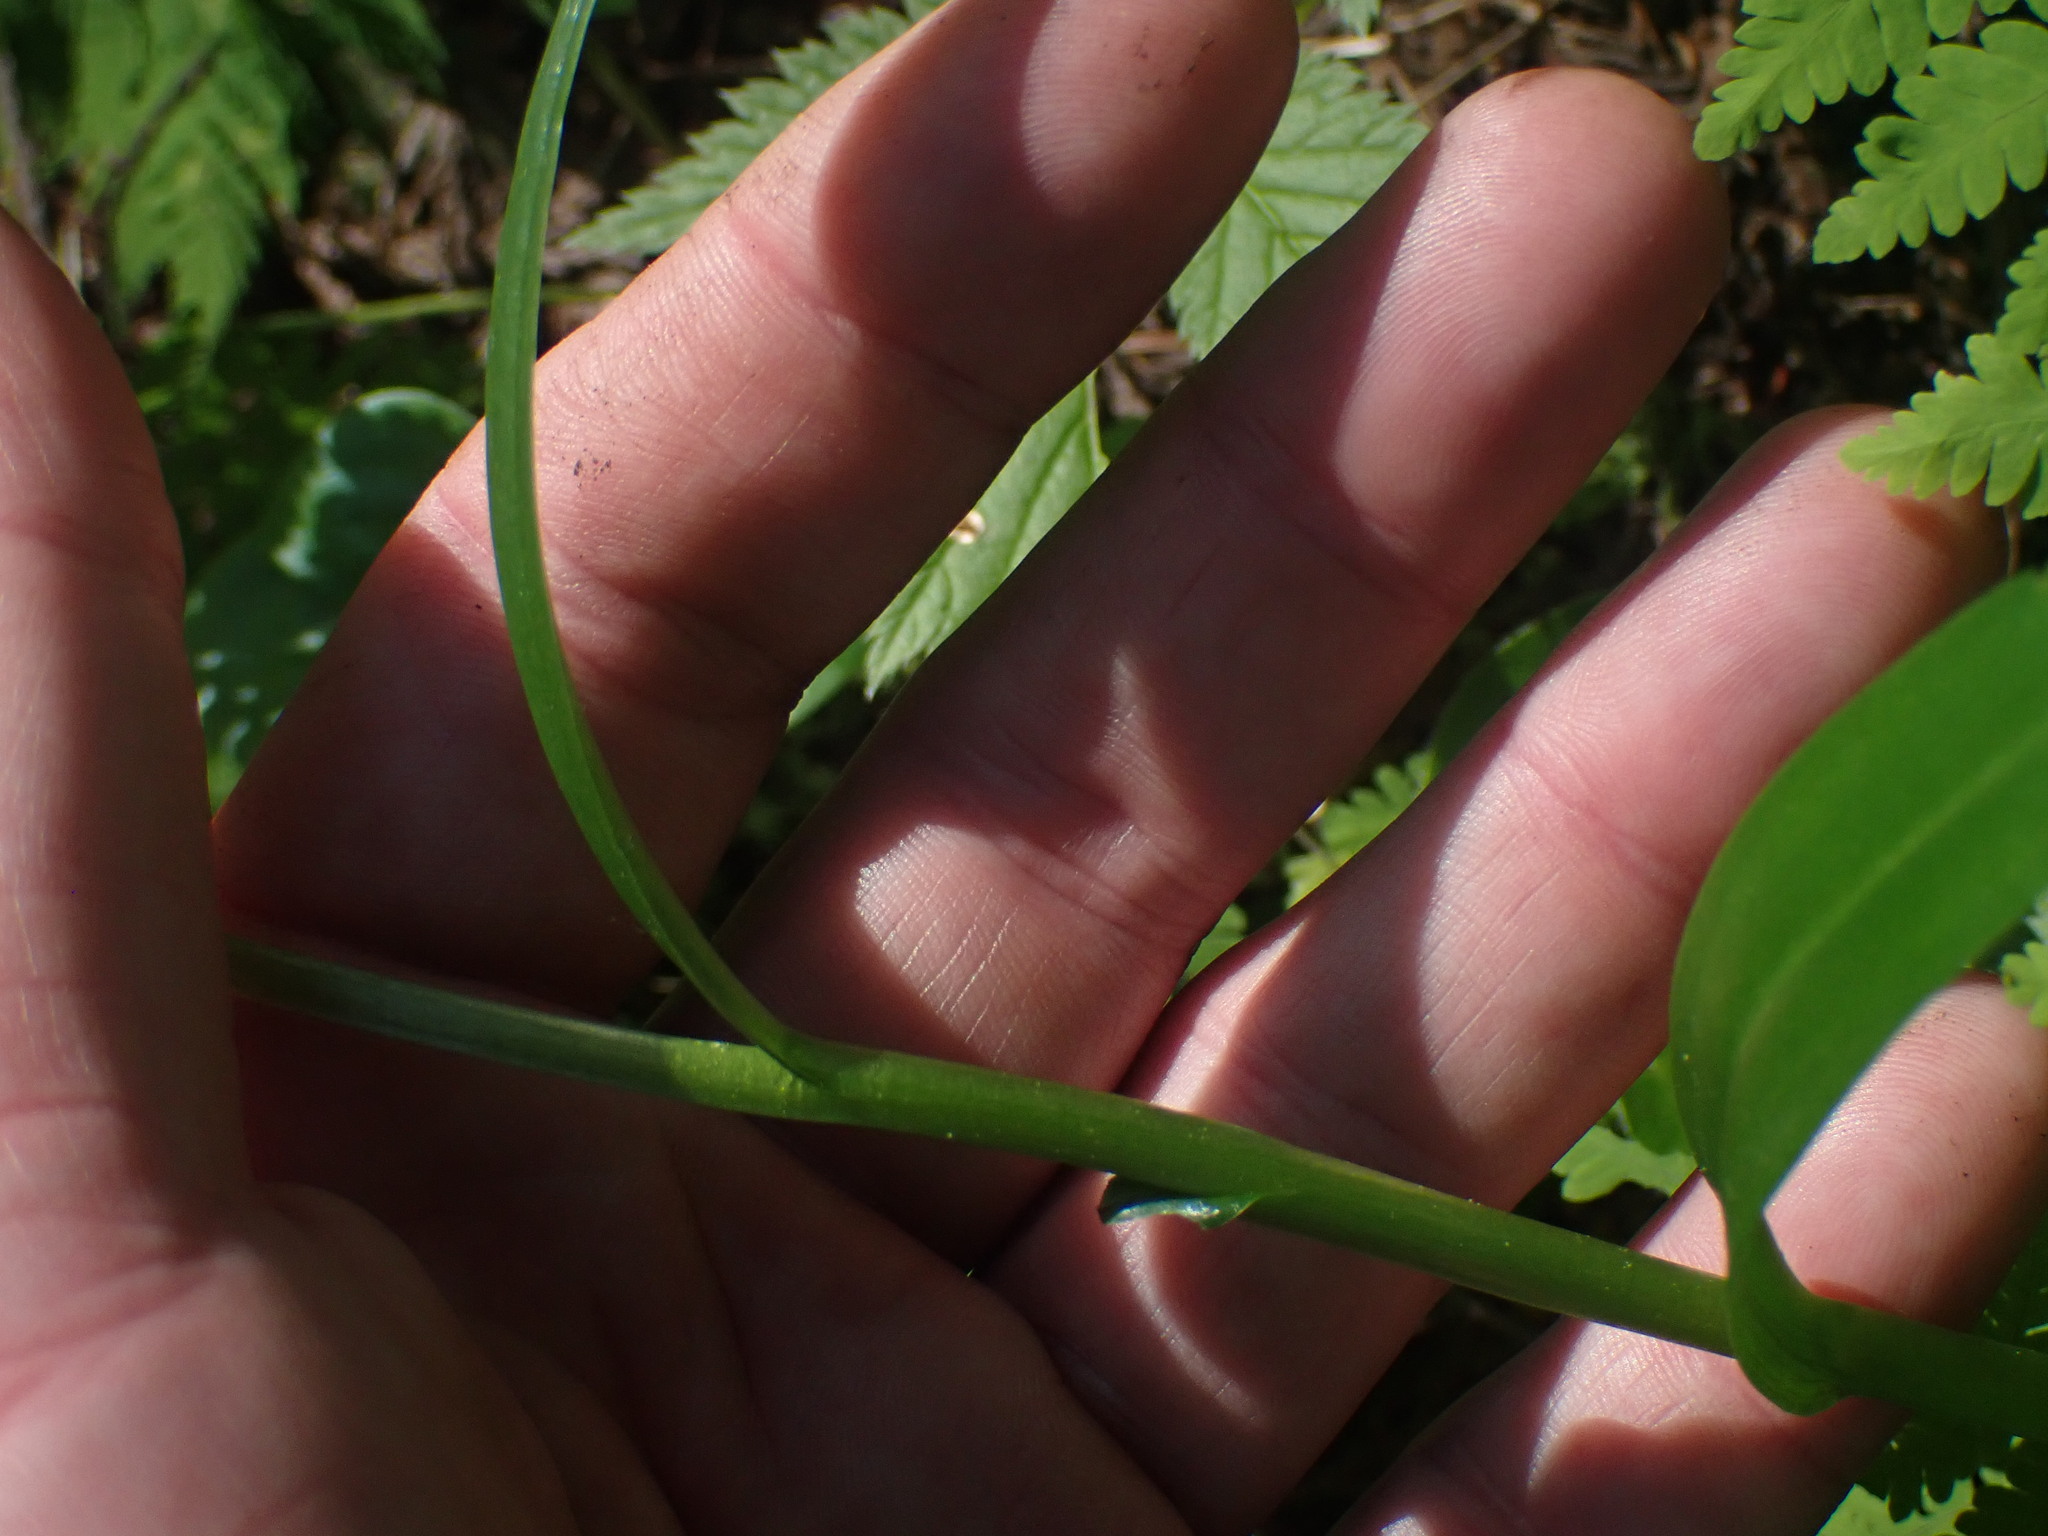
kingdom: Plantae
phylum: Tracheophyta
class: Liliopsida
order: Asparagales
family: Orchidaceae
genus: Platanthera
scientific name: Platanthera stricta
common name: Slender bog orchid
